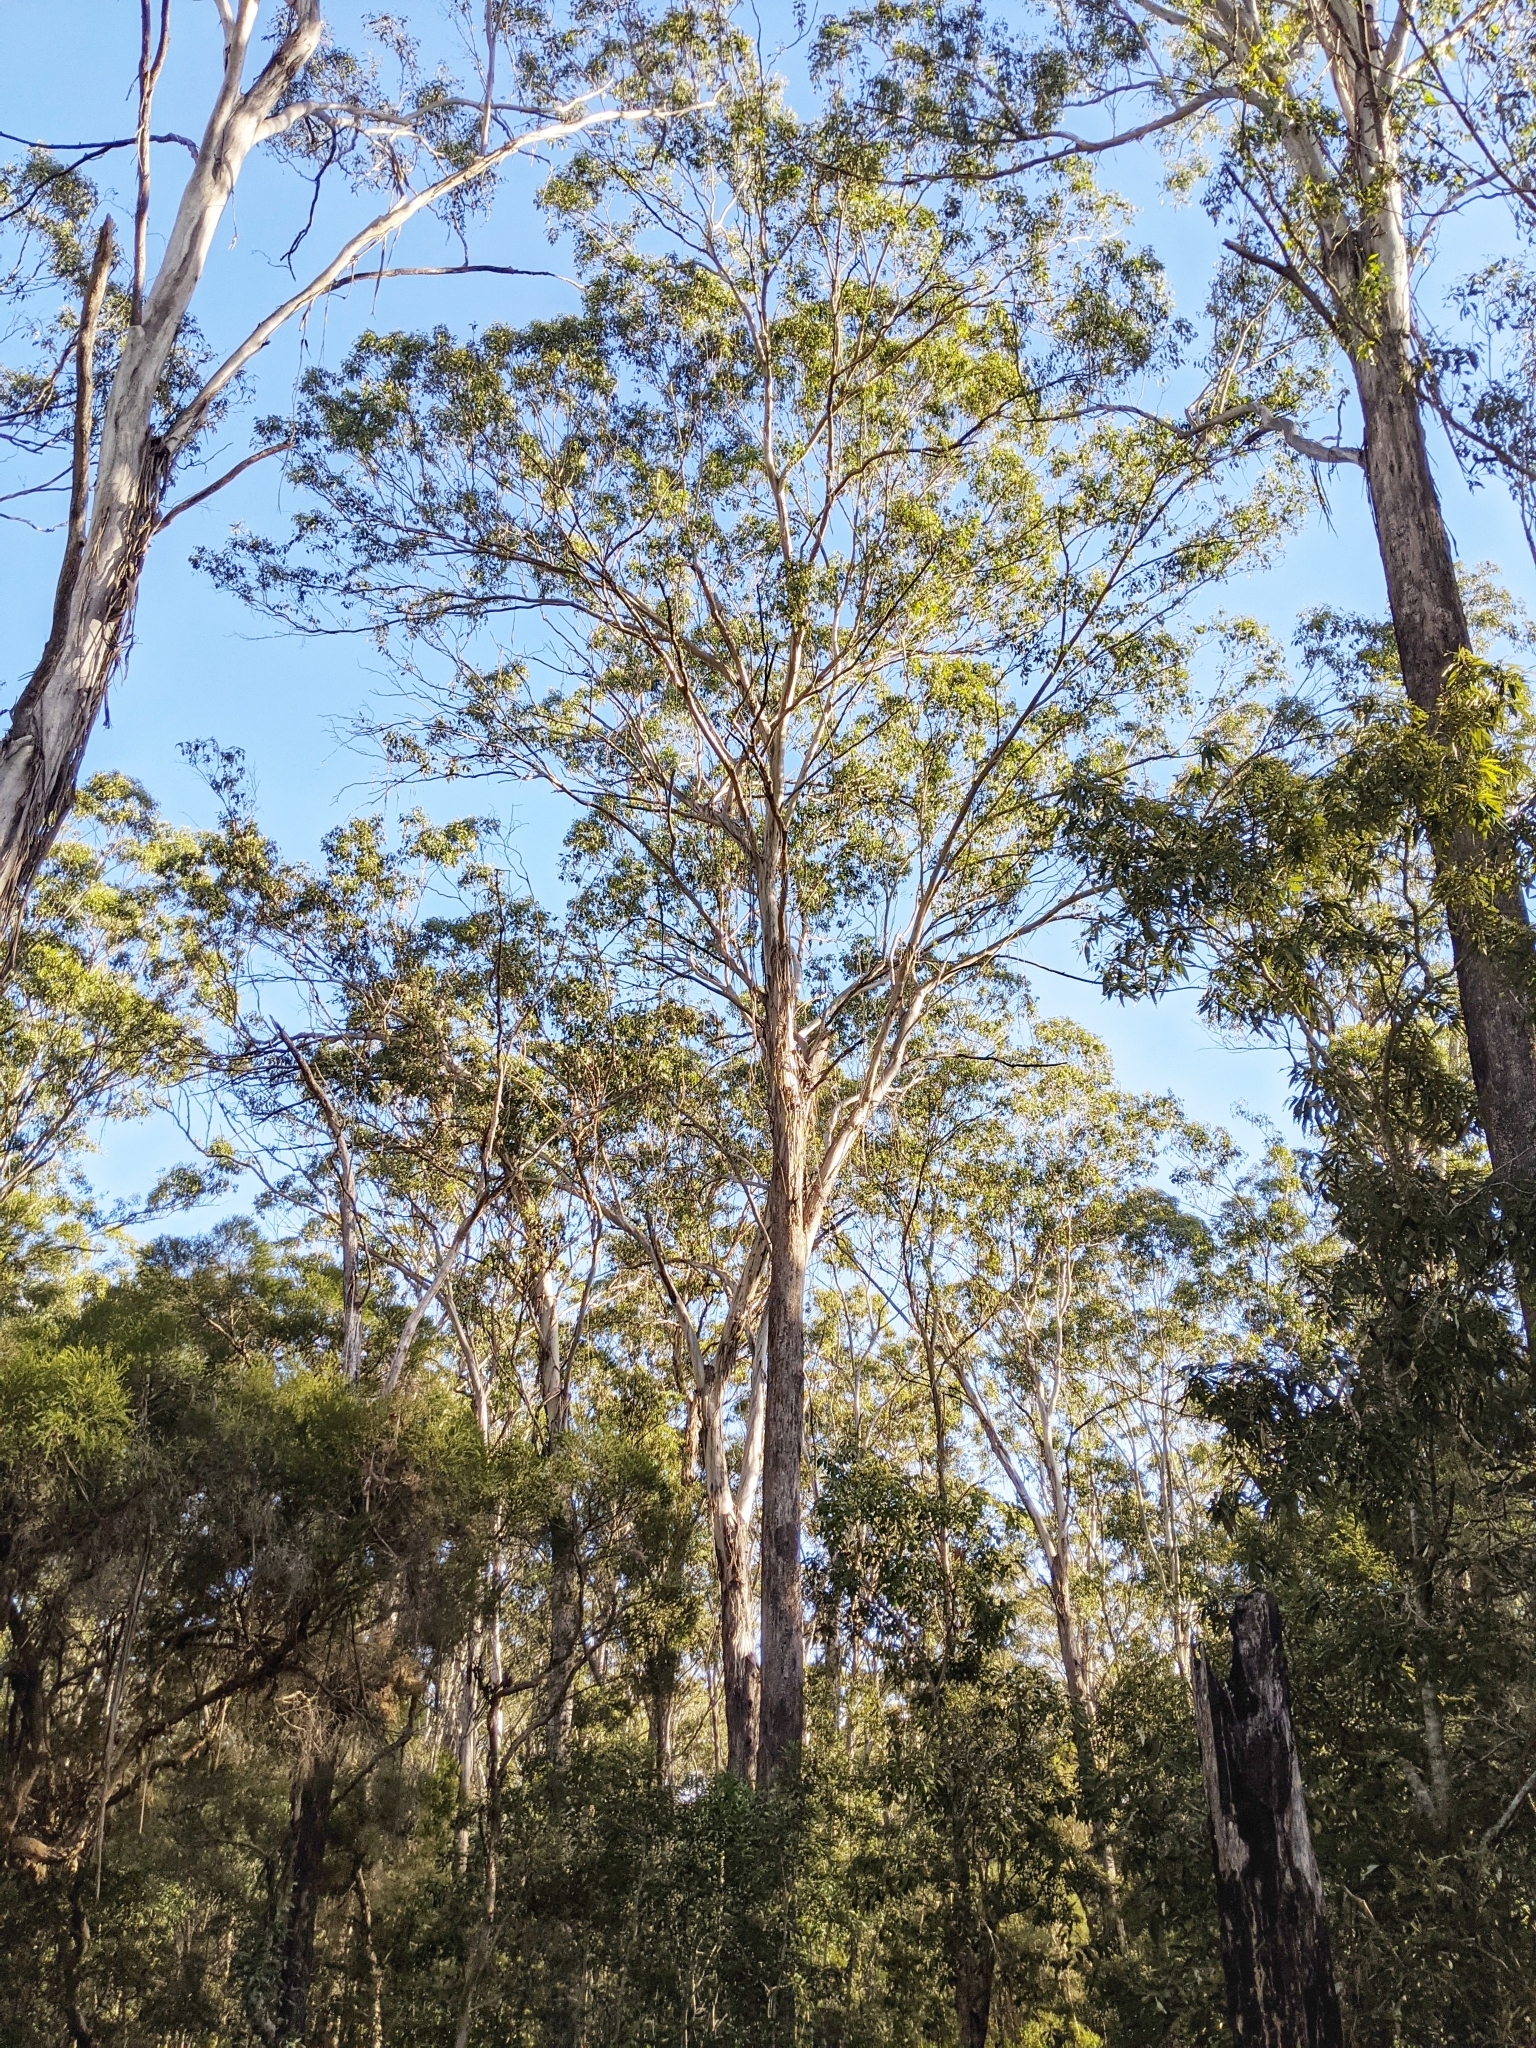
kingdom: Plantae
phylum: Tracheophyta
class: Magnoliopsida
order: Myrtales
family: Myrtaceae
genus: Eucalyptus
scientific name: Eucalyptus moluccana
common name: Grey-box
